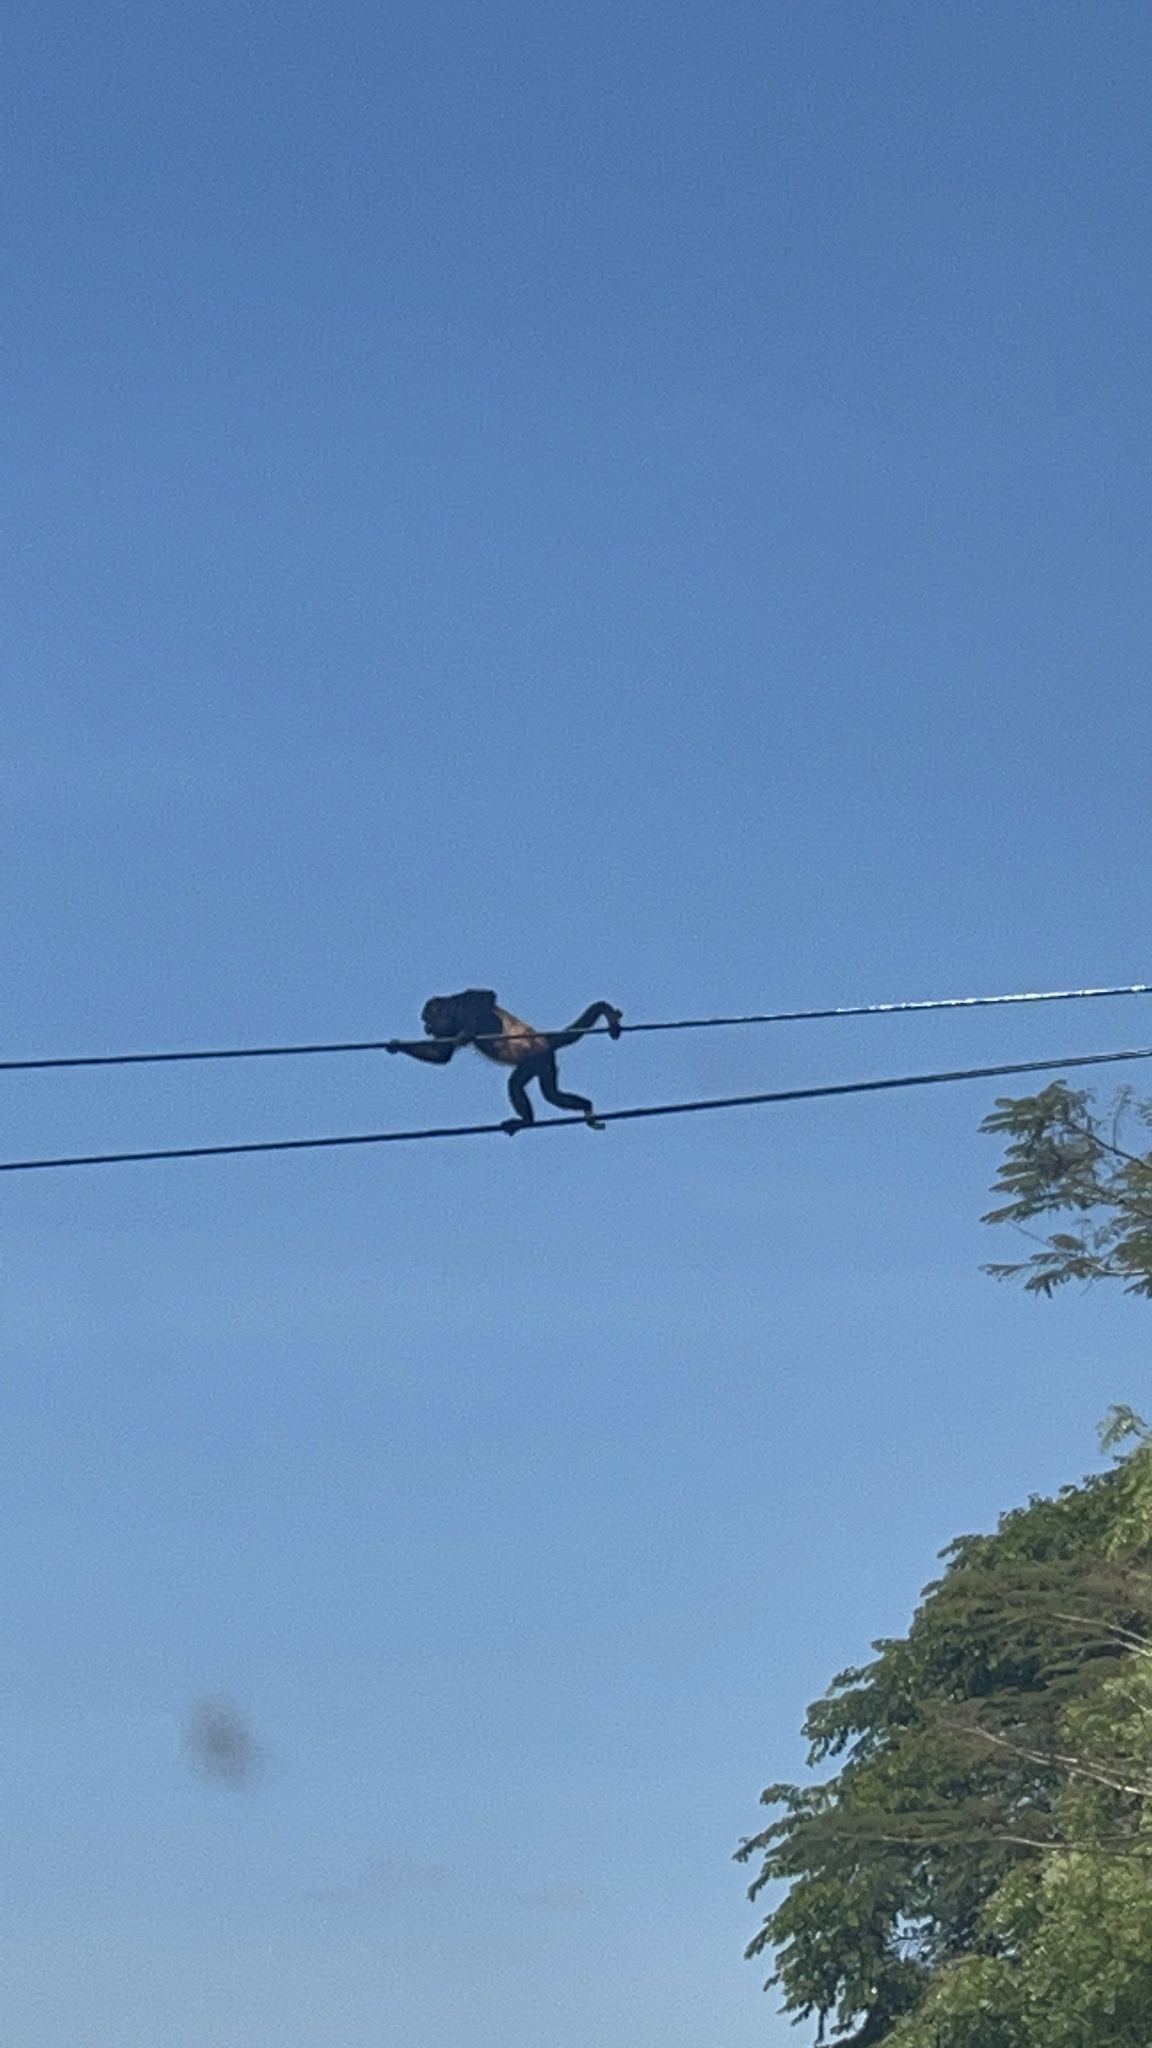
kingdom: Animalia
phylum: Chordata
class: Mammalia
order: Primates
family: Atelidae
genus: Alouatta
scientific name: Alouatta palliata
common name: Mantled howler
